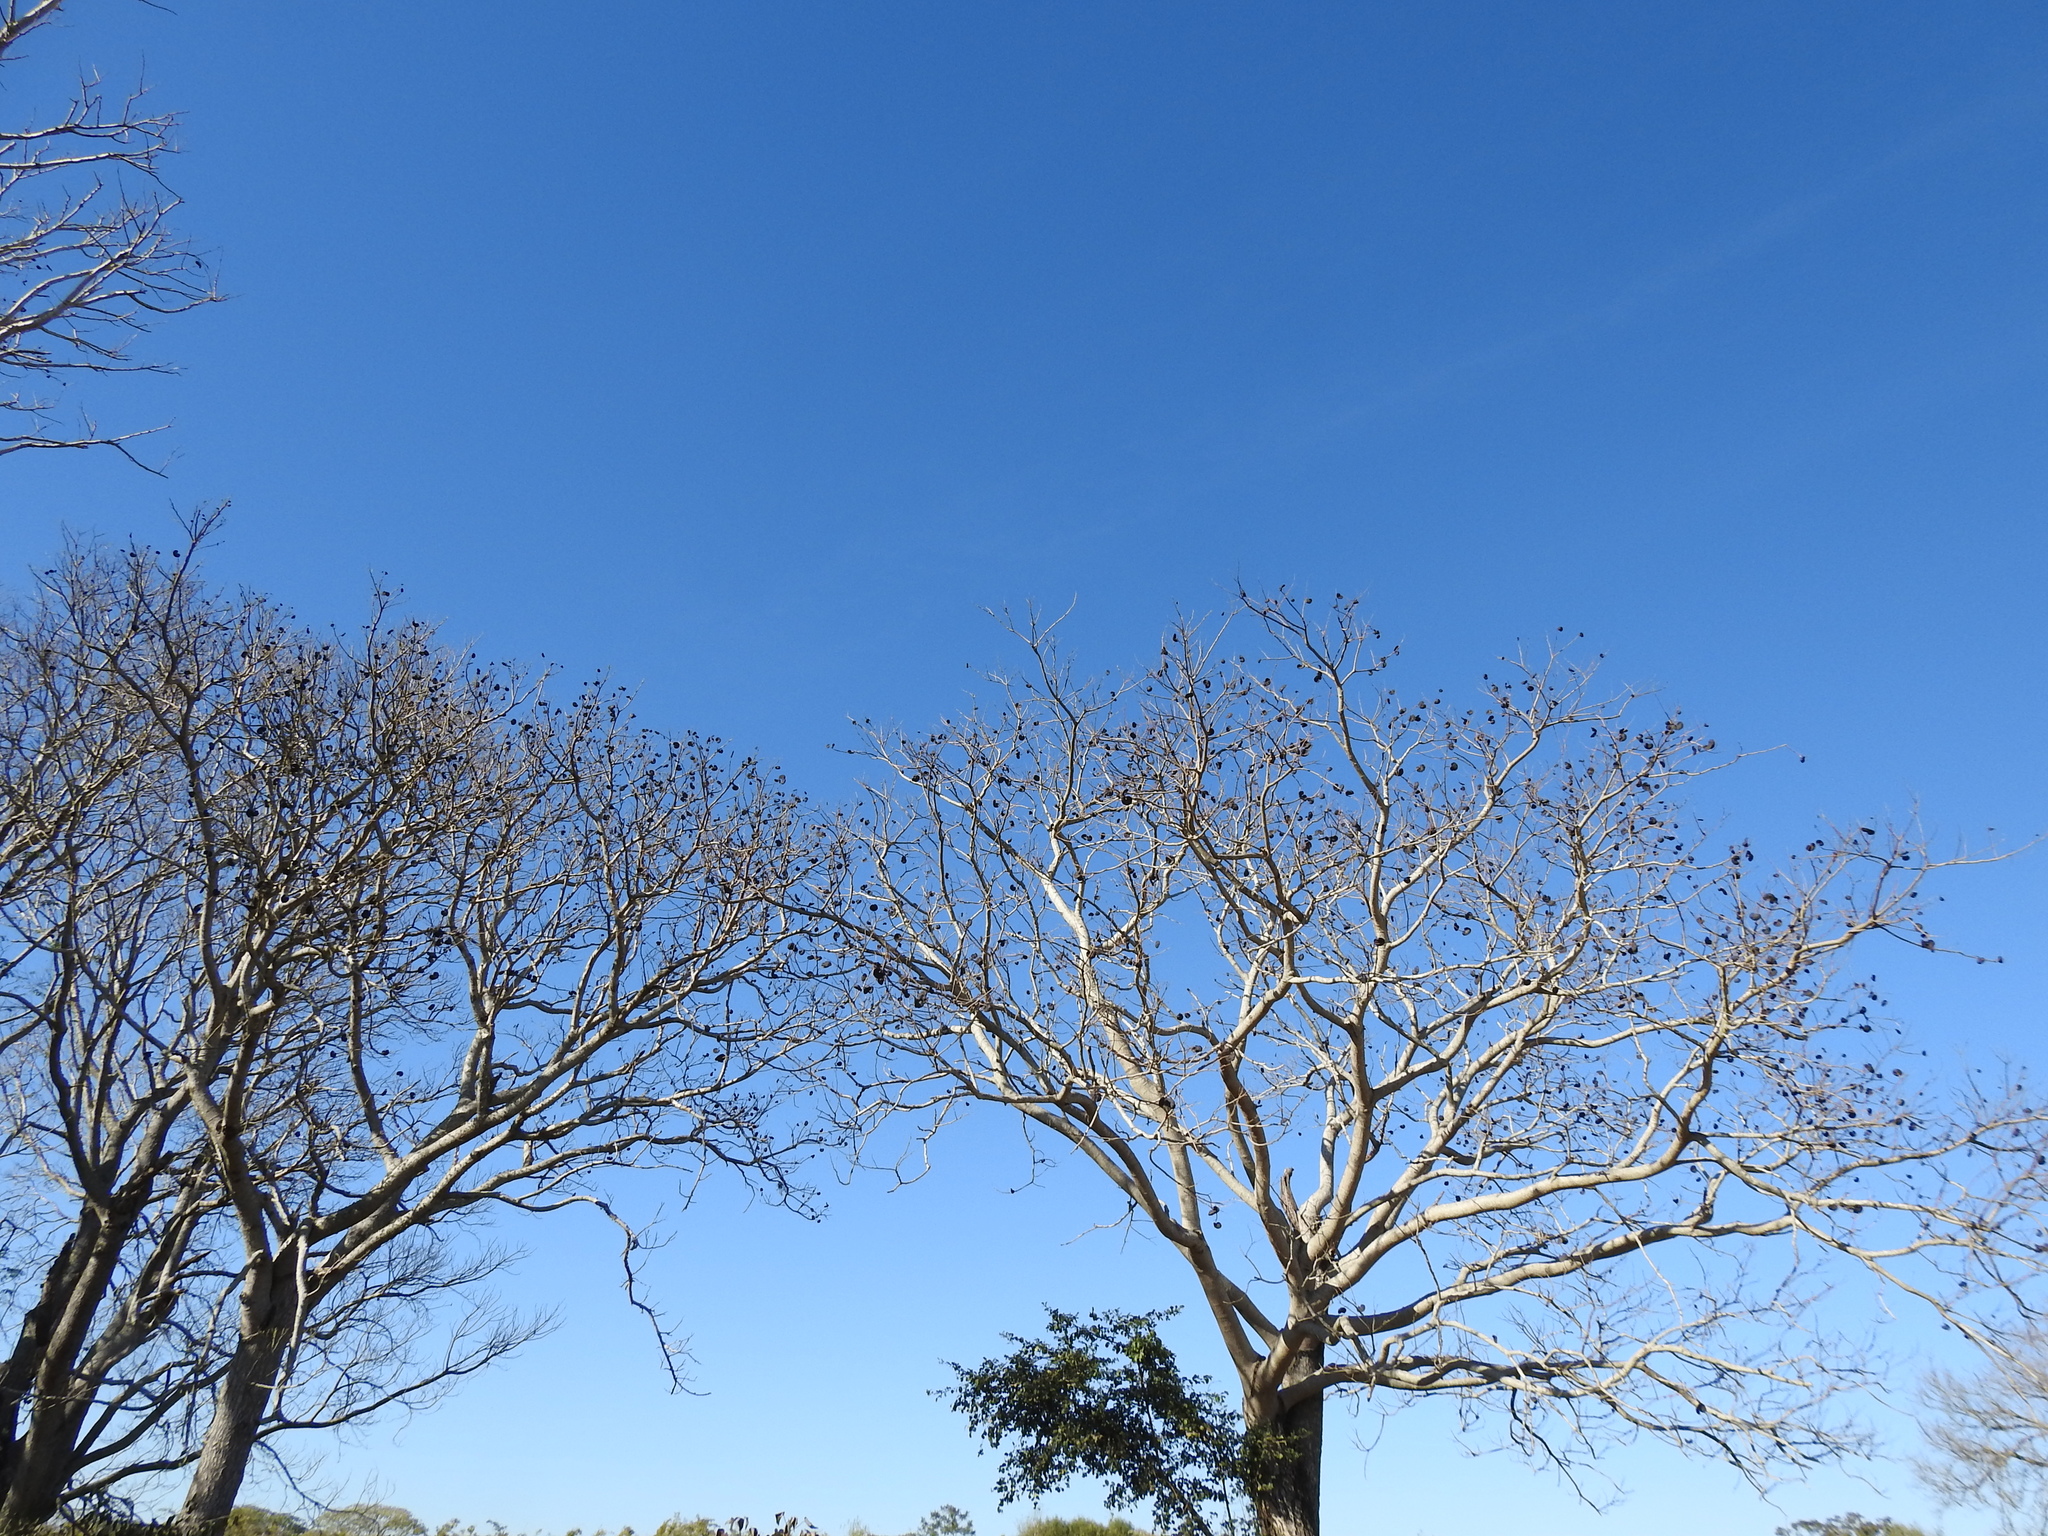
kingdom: Plantae
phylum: Tracheophyta
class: Magnoliopsida
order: Fabales
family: Fabaceae
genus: Enterolobium
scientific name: Enterolobium contortisiliquum
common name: Pacara earpod tree
